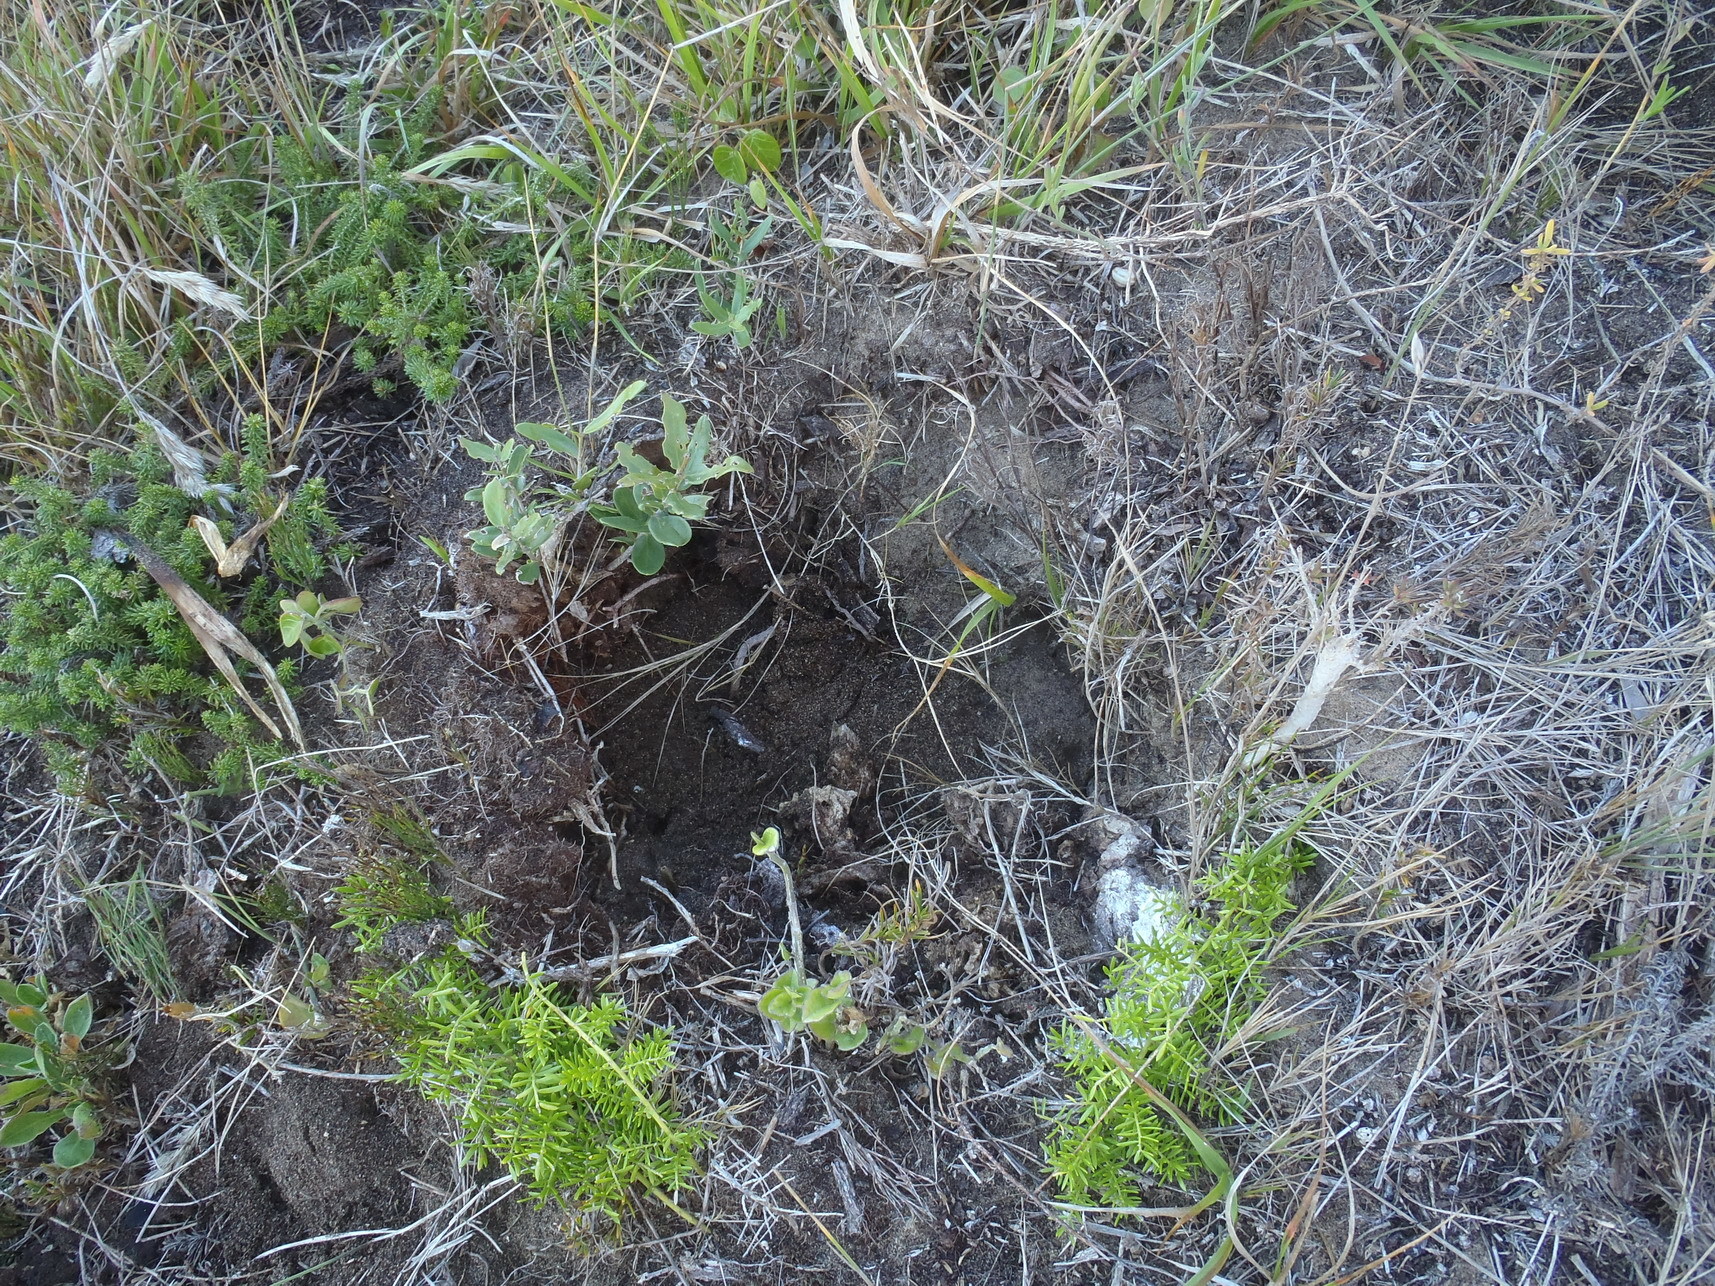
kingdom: Plantae
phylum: Tracheophyta
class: Liliopsida
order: Asparagales
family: Orchidaceae
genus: Eulophia
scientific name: Eulophia speciosa
